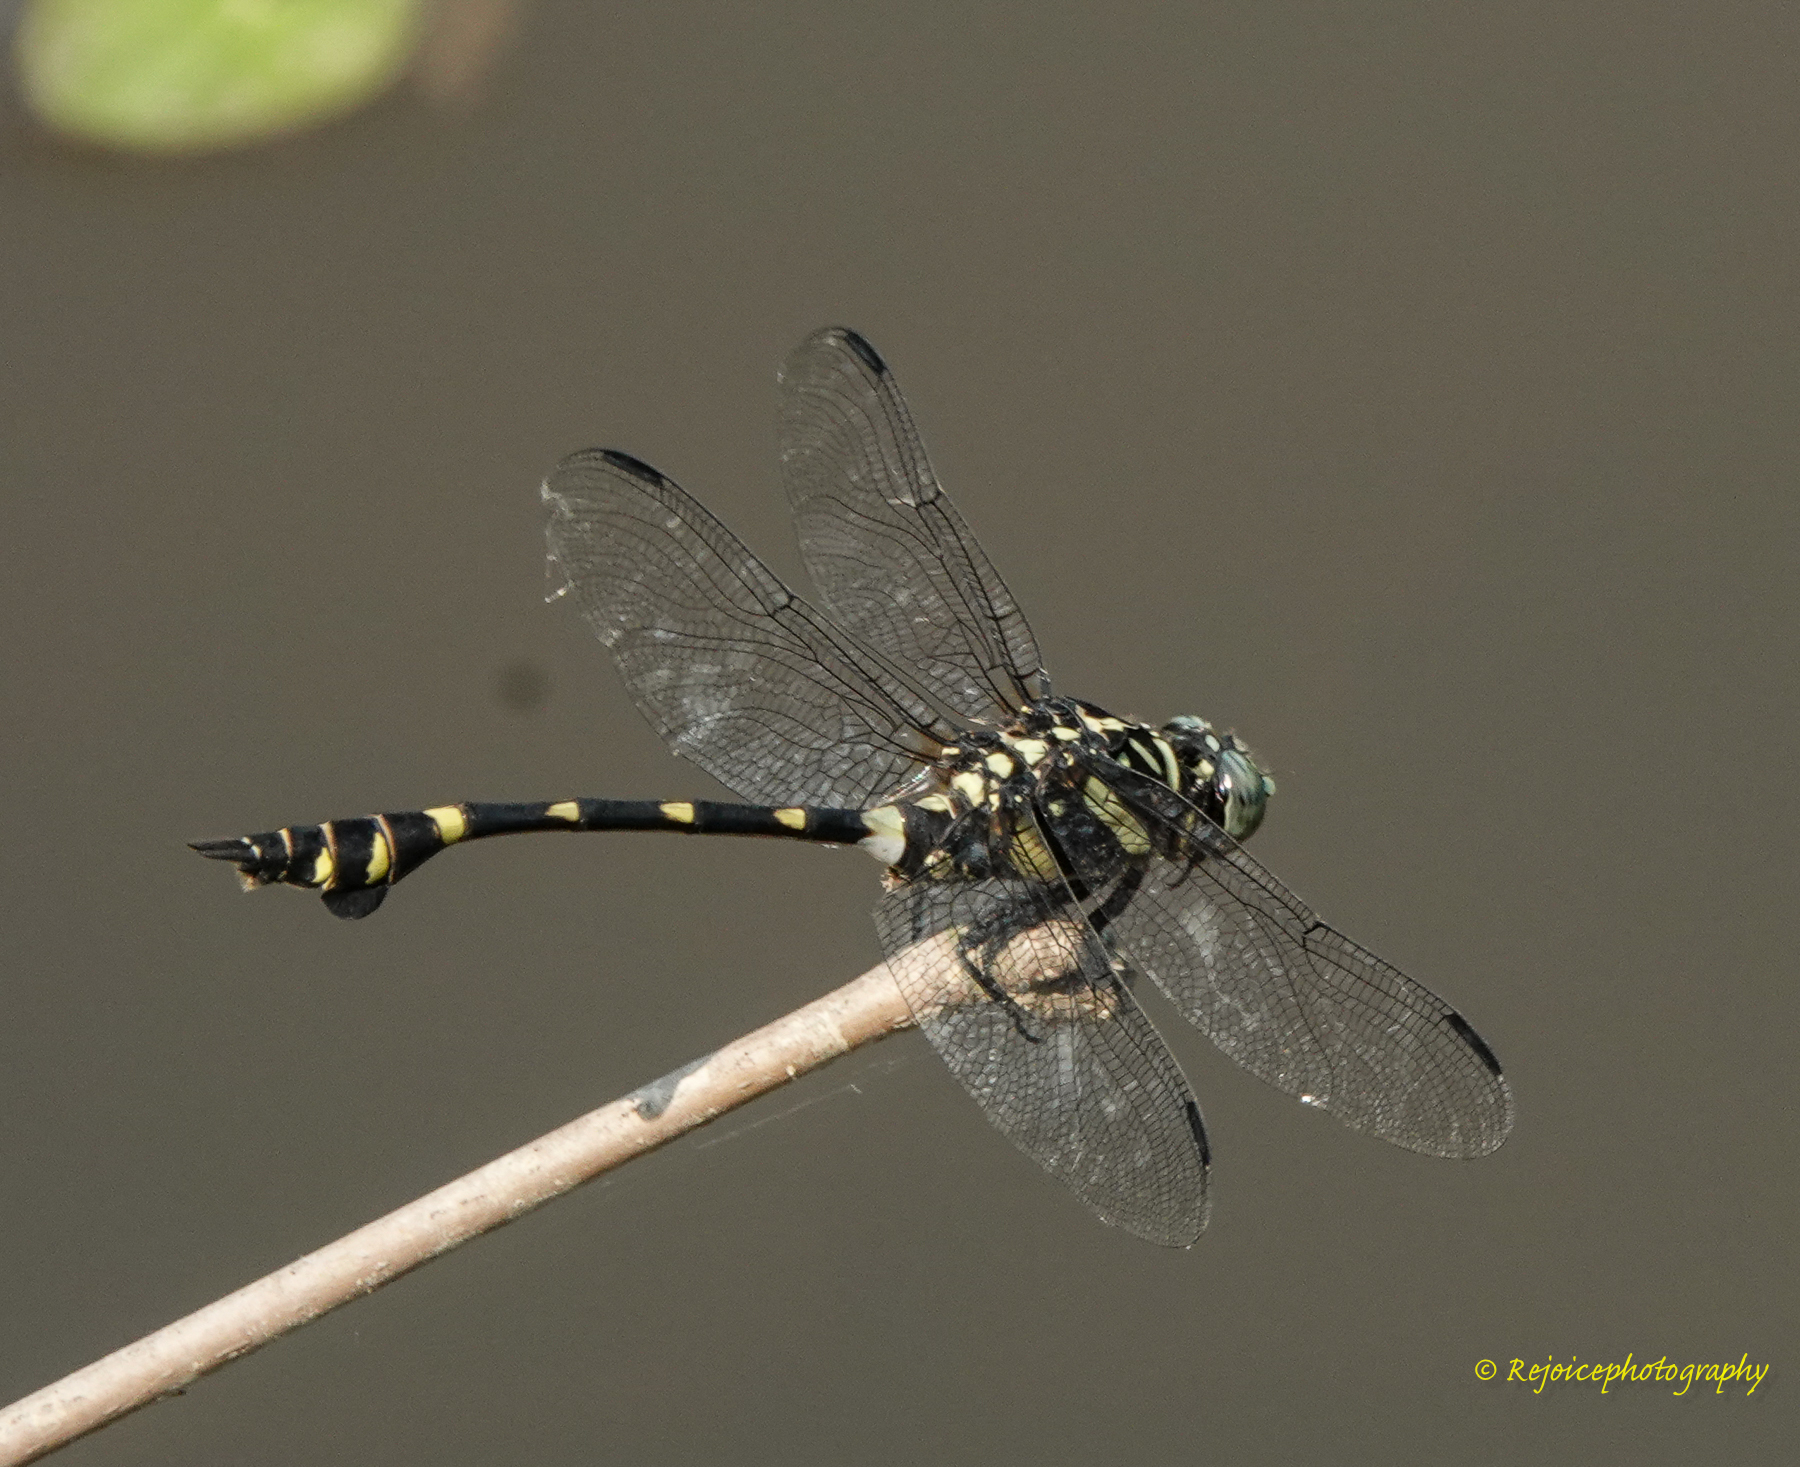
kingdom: Animalia
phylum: Arthropoda
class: Insecta
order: Odonata
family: Gomphidae
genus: Ictinogomphus
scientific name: Ictinogomphus rapax
